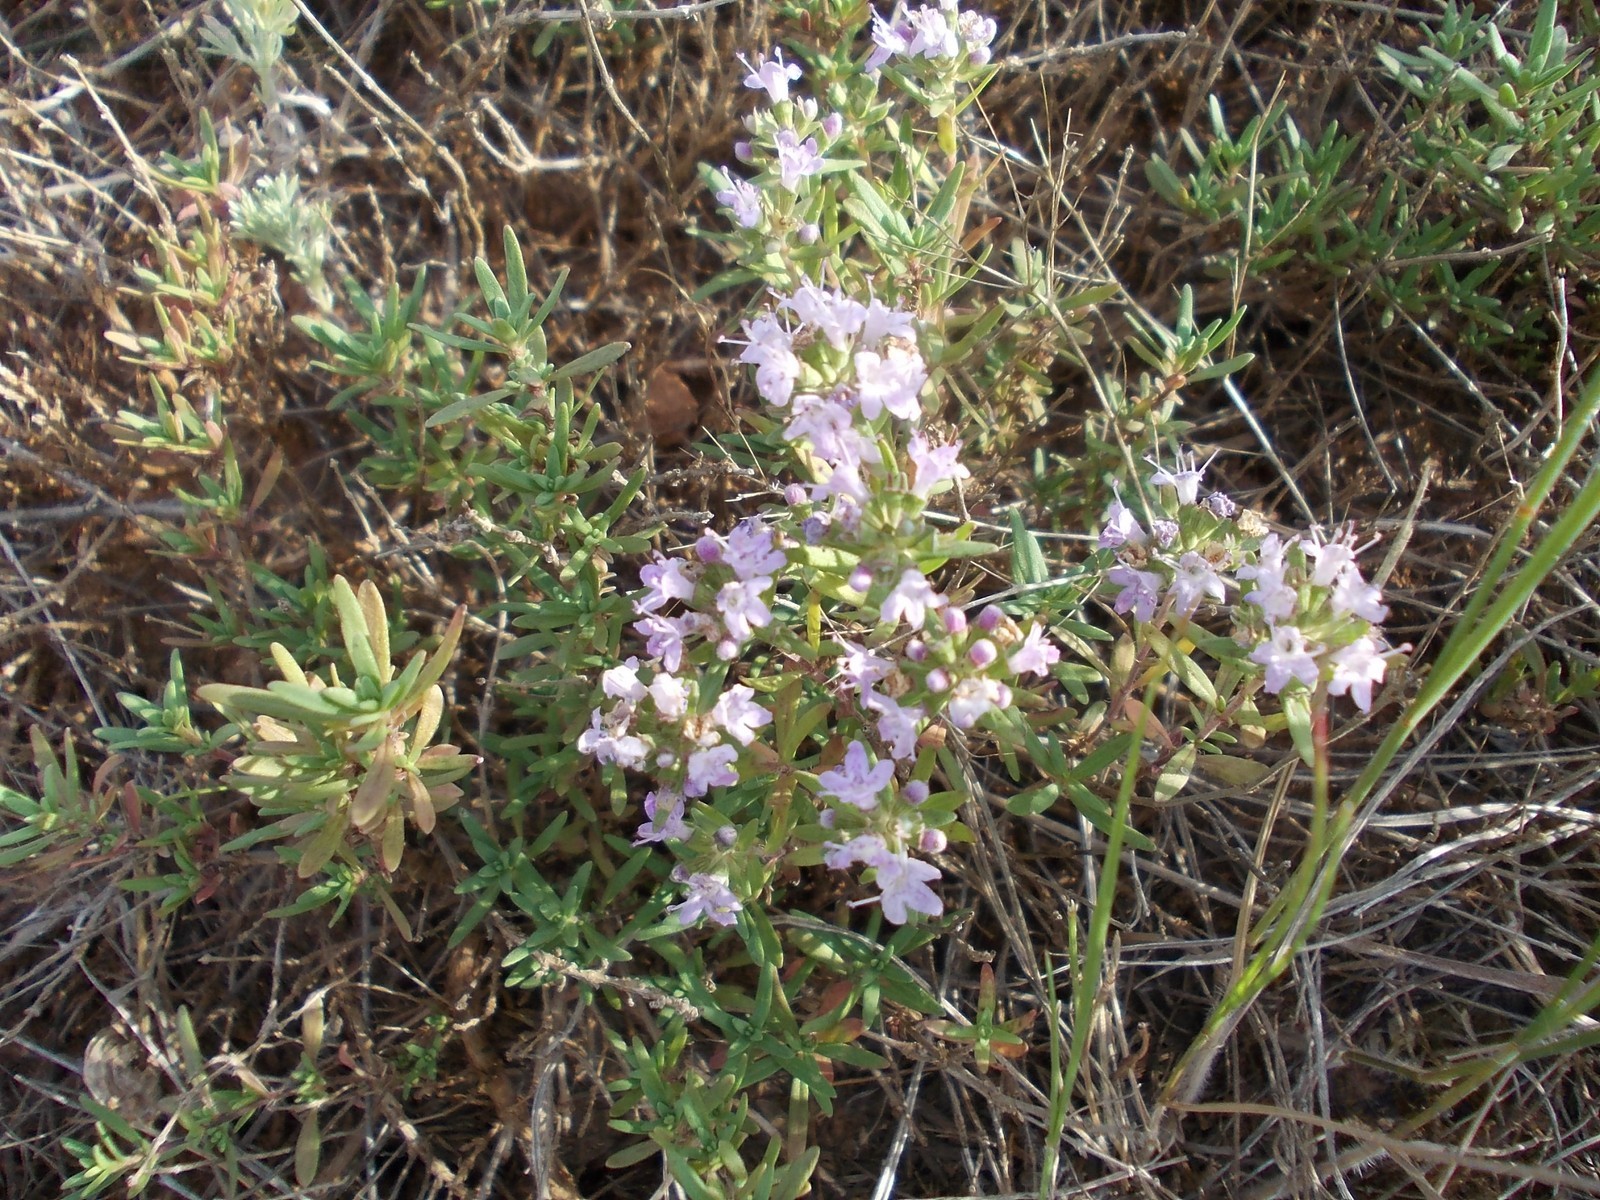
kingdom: Plantae
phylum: Tracheophyta
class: Magnoliopsida
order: Lamiales
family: Lamiaceae
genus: Thymus
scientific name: Thymus kirgisorum
